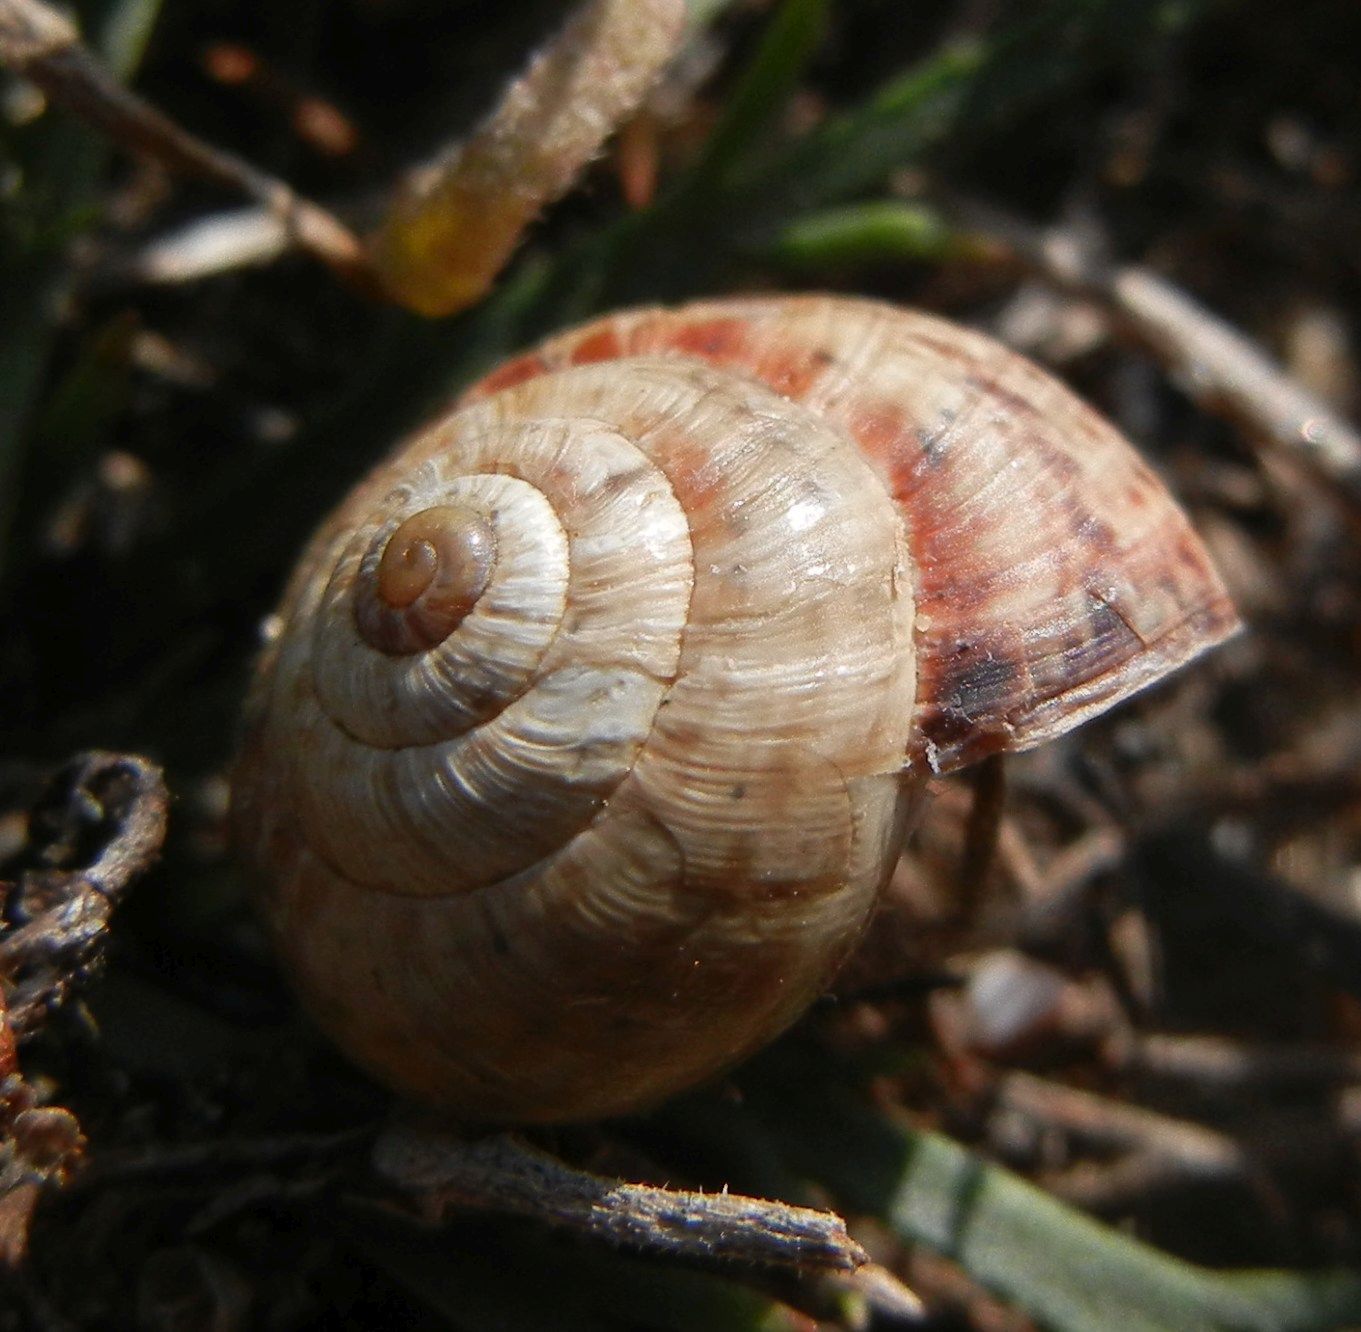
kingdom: Animalia
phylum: Mollusca
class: Gastropoda
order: Stylommatophora
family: Geomitridae
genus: Cernuella
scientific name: Cernuella virgata
